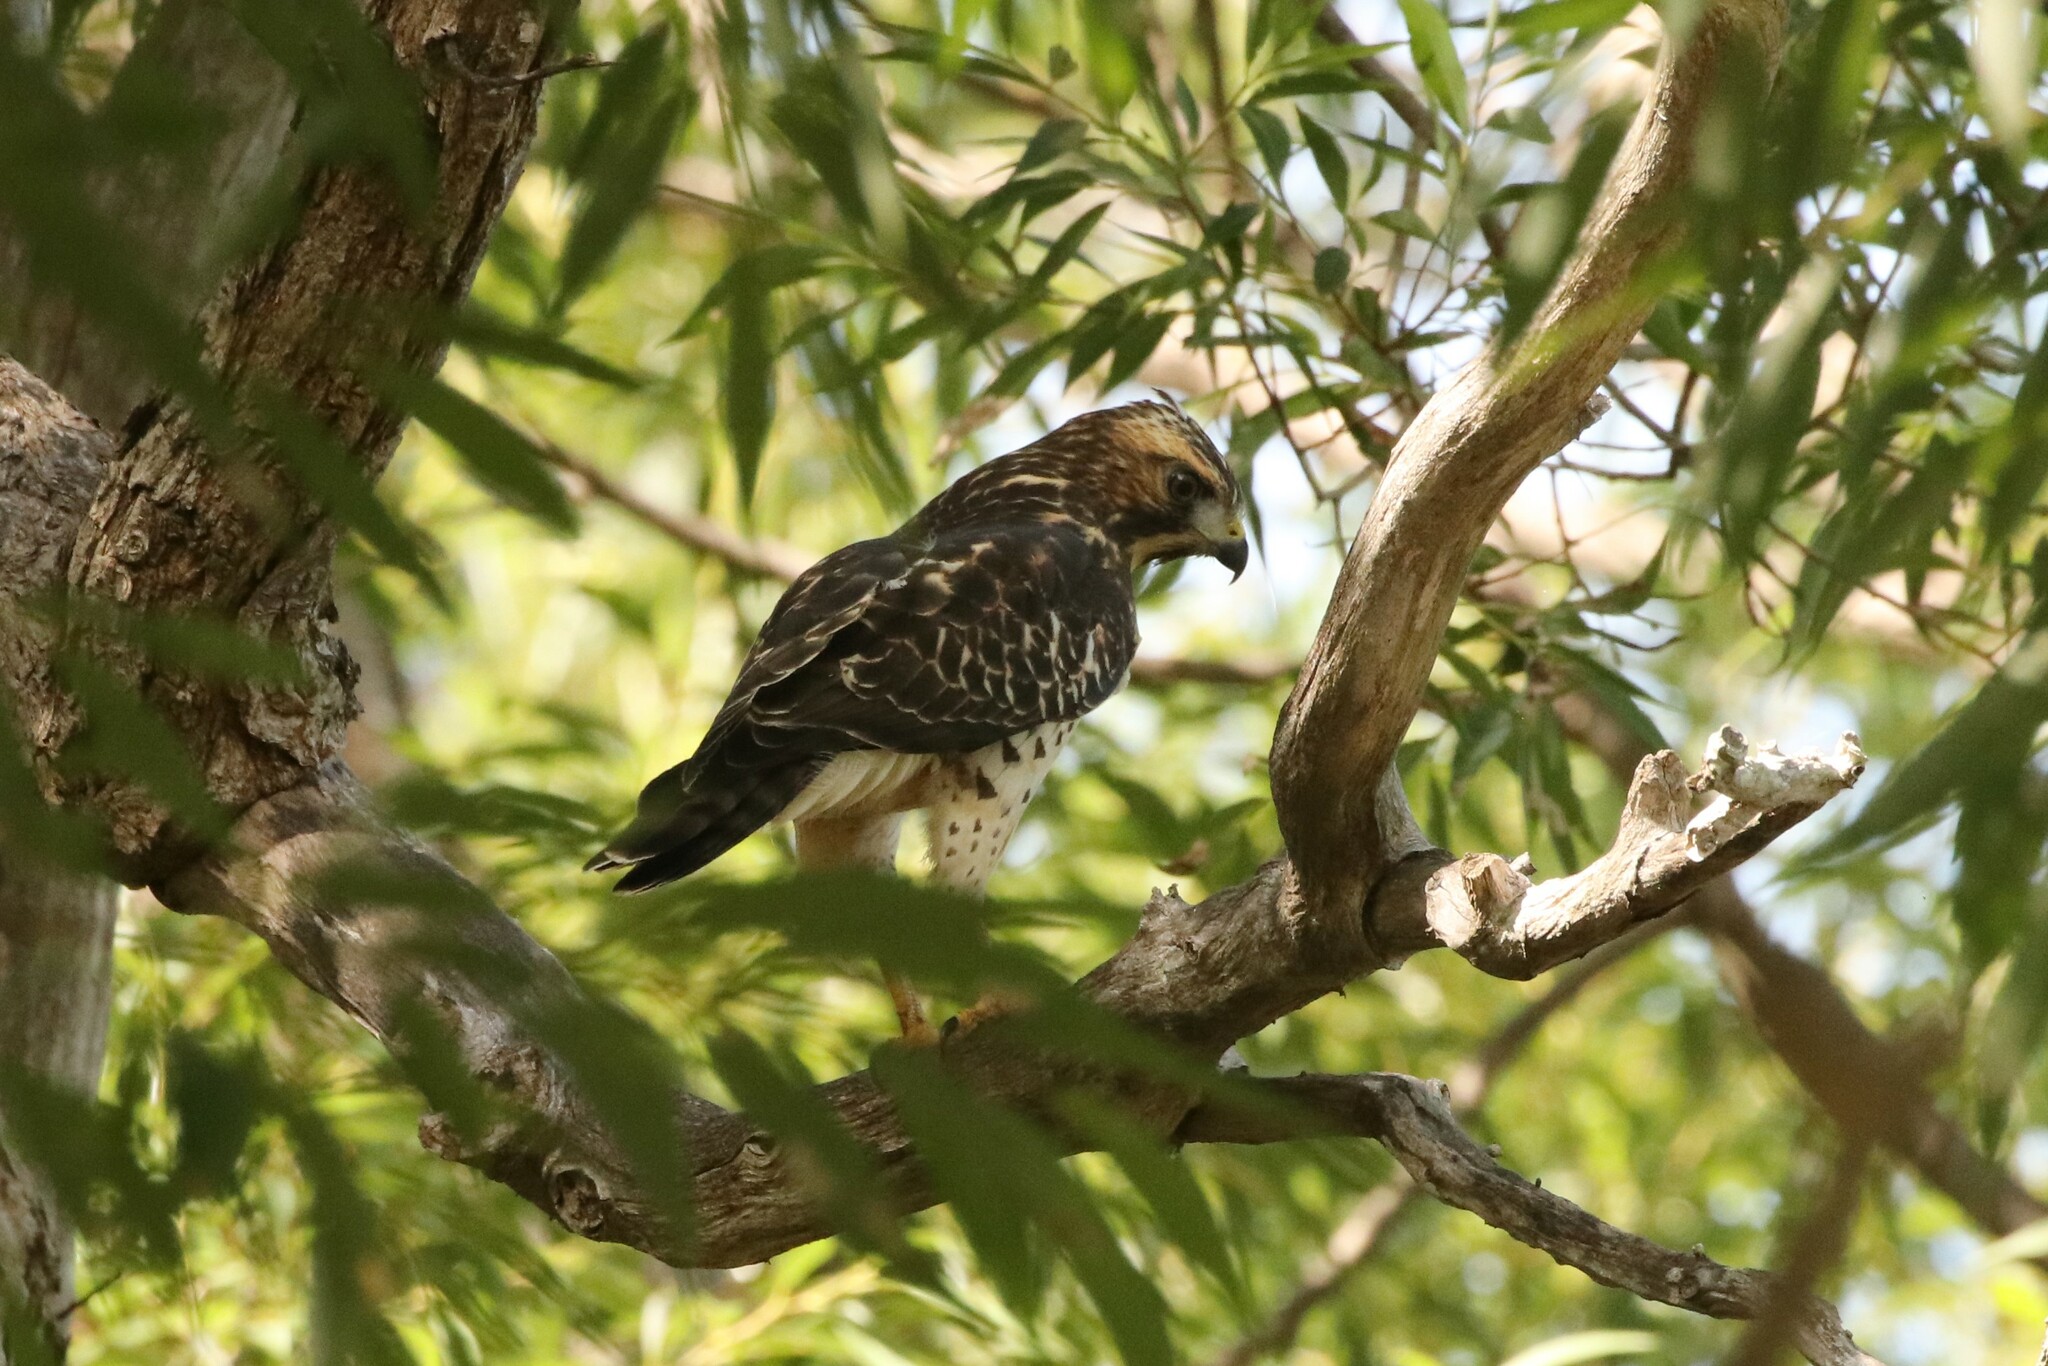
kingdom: Animalia
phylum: Chordata
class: Aves
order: Accipitriformes
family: Accipitridae
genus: Buteo
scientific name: Buteo platypterus
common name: Broad-winged hawk
